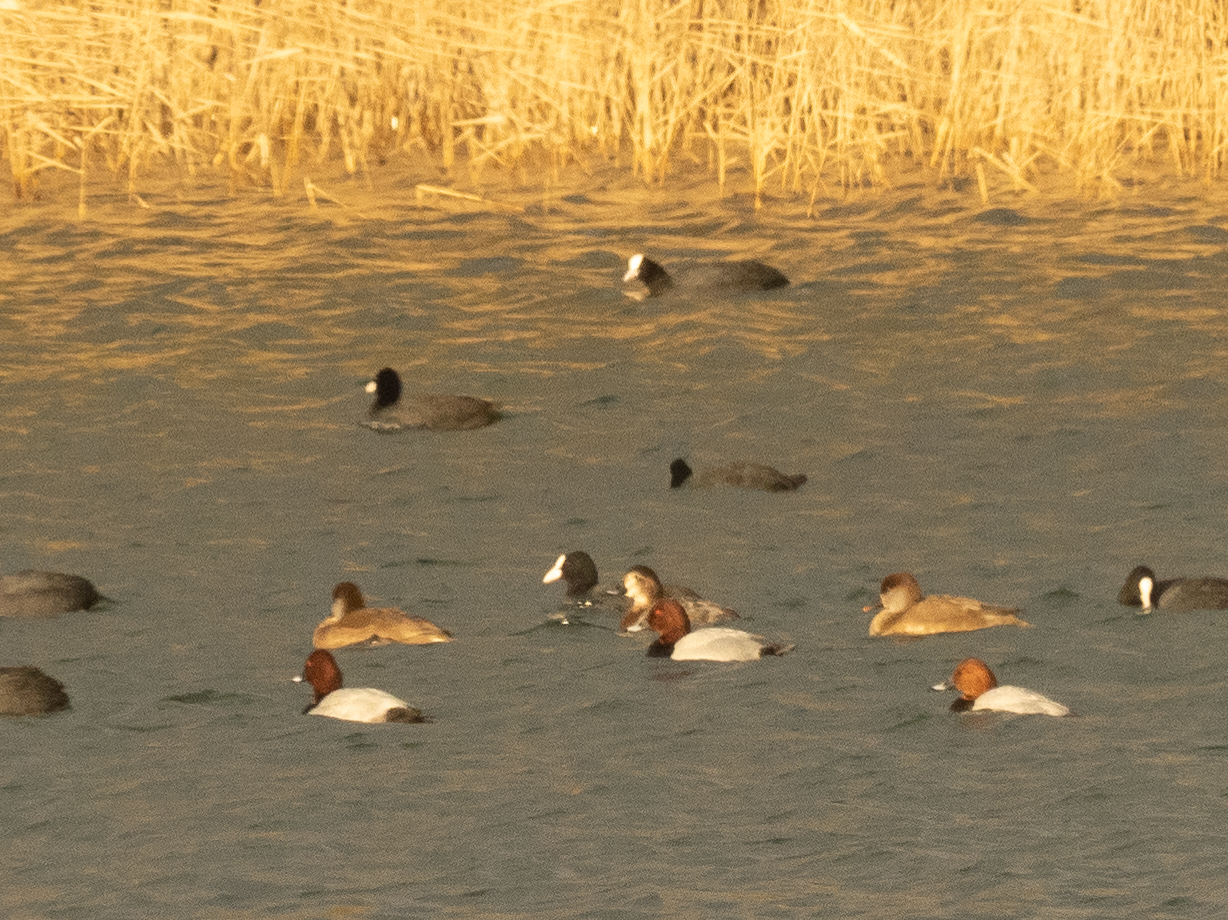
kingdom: Animalia
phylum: Chordata
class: Aves
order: Anseriformes
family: Anatidae
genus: Aythya
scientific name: Aythya ferina
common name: Common pochard
